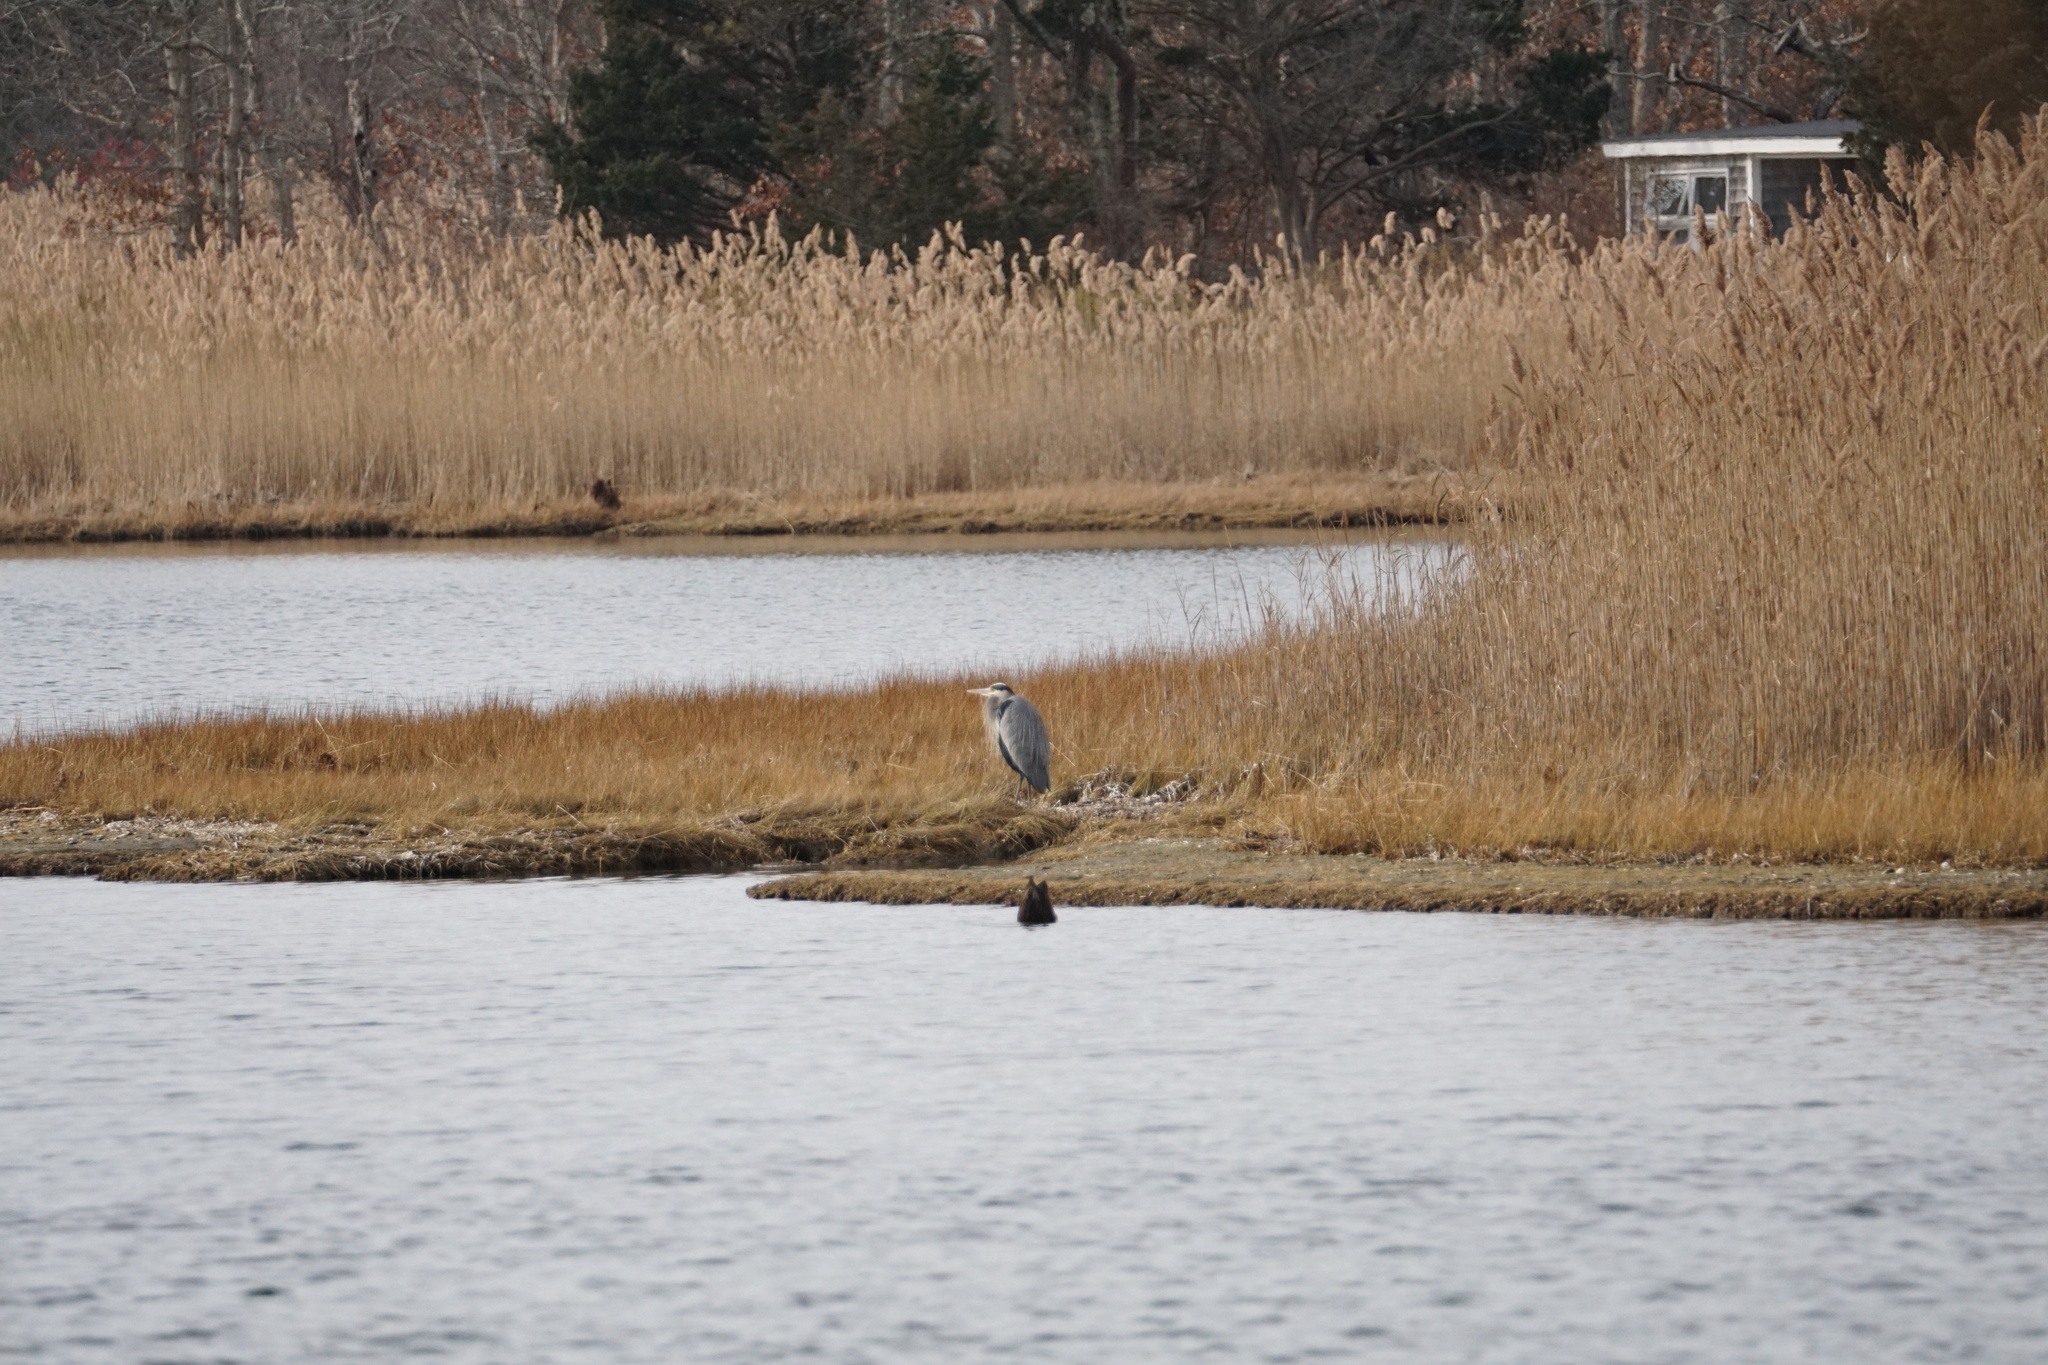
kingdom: Animalia
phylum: Chordata
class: Aves
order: Pelecaniformes
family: Ardeidae
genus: Ardea
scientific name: Ardea herodias
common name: Great blue heron
